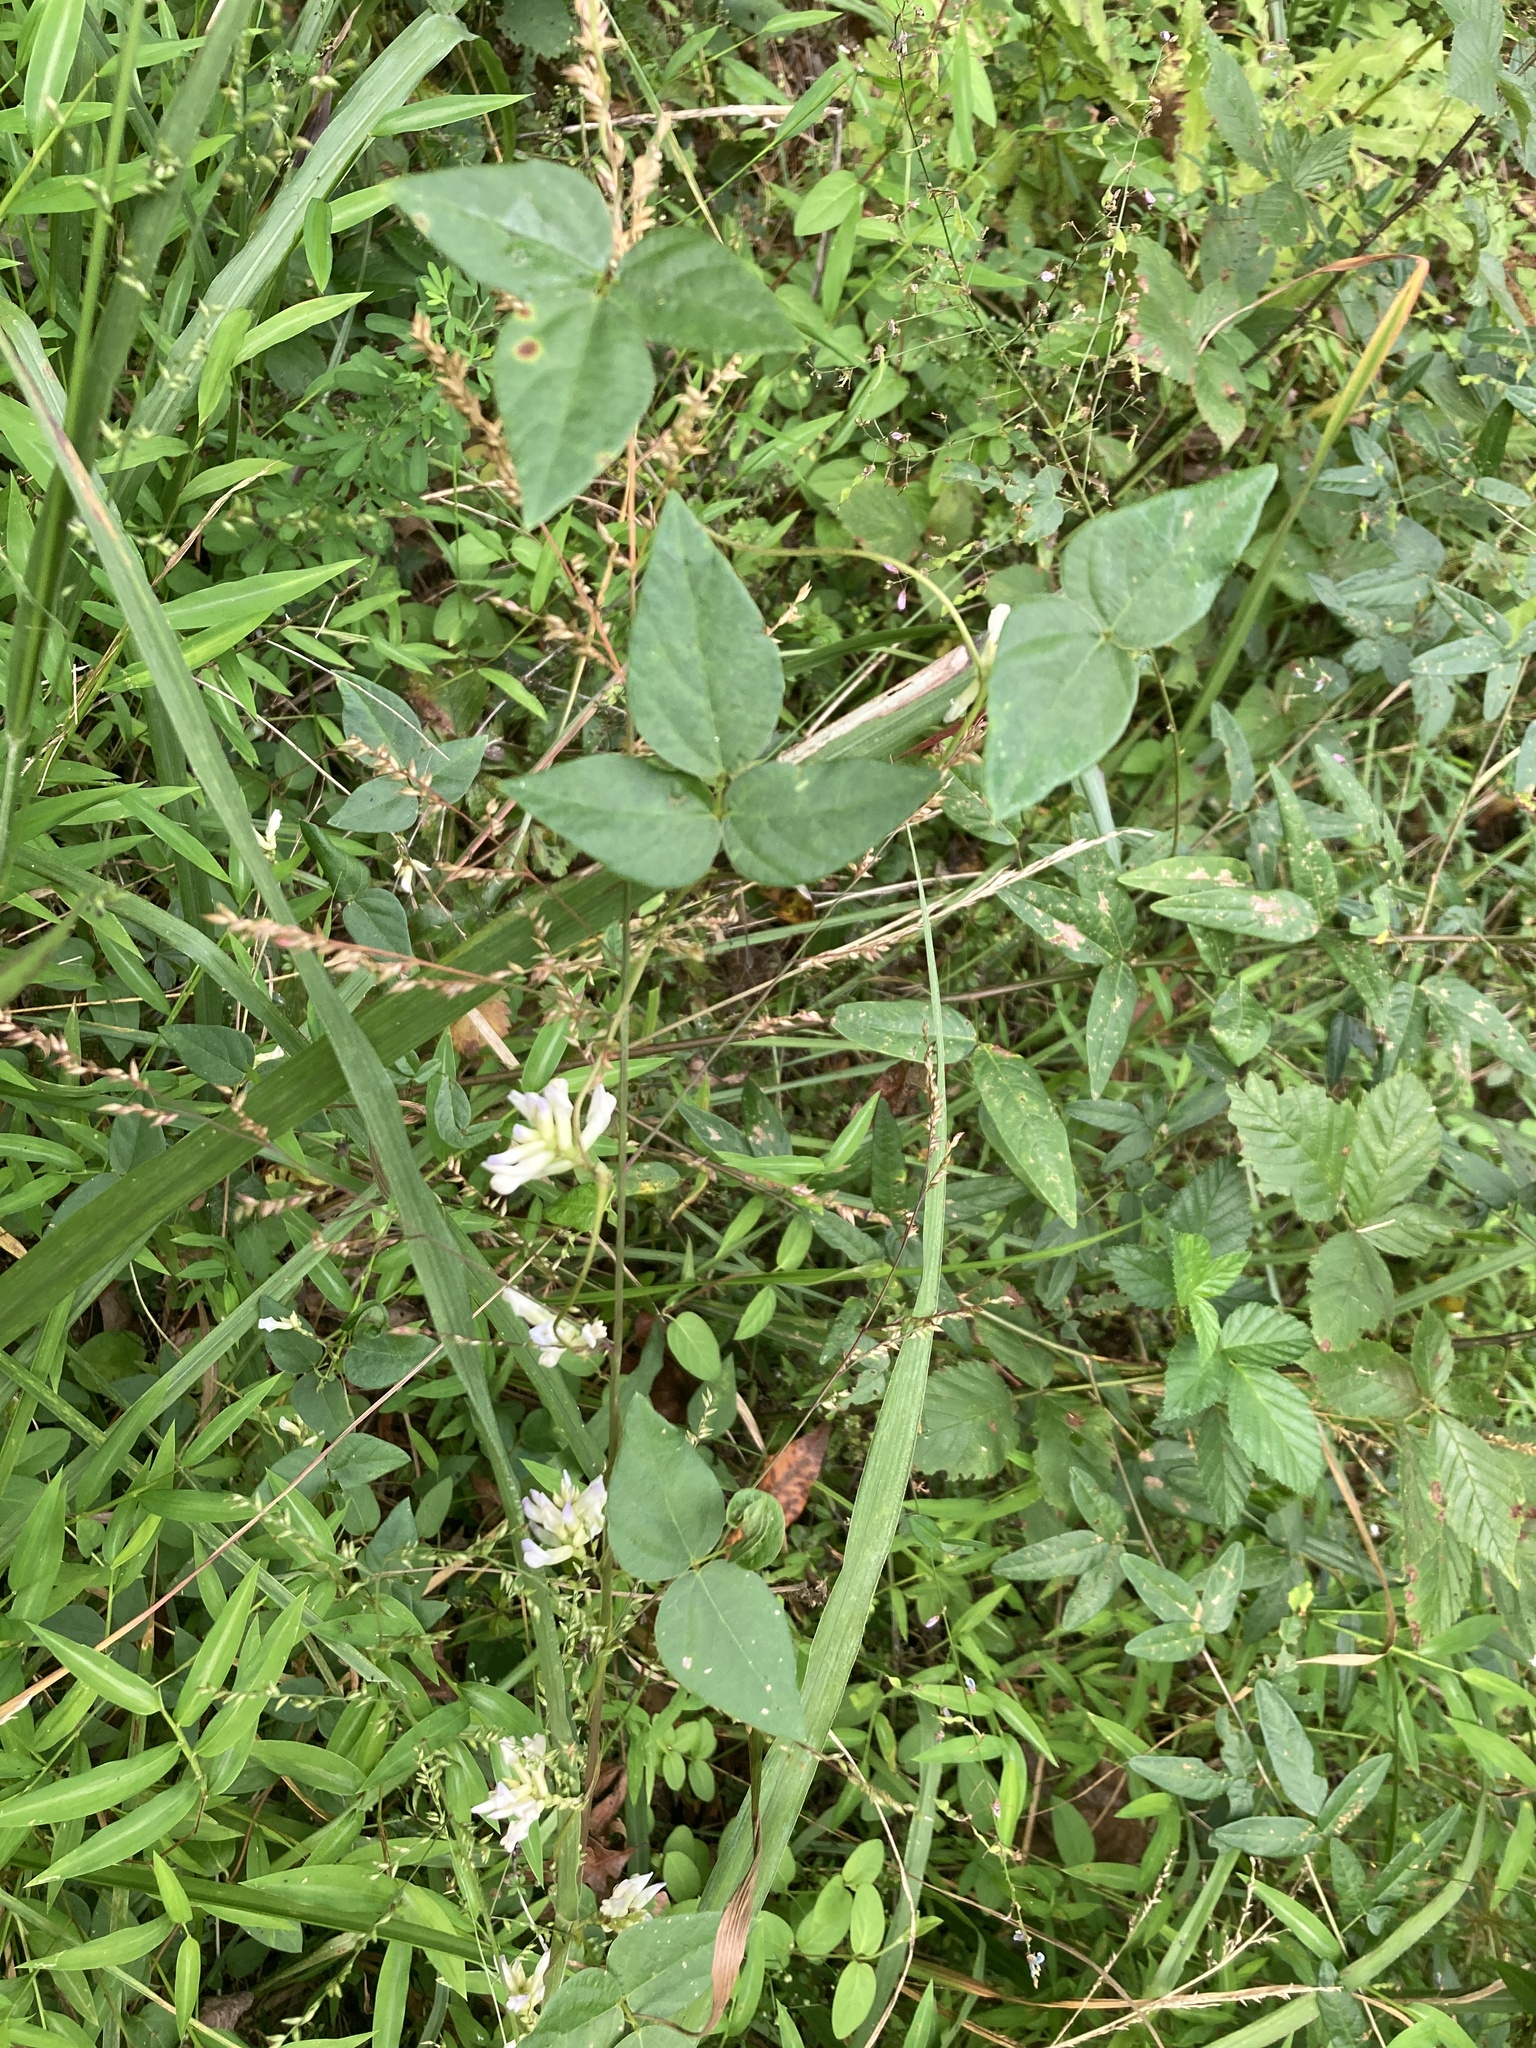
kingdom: Plantae
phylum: Tracheophyta
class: Magnoliopsida
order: Fabales
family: Fabaceae
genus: Amphicarpaea
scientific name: Amphicarpaea bracteata
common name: American hog peanut
